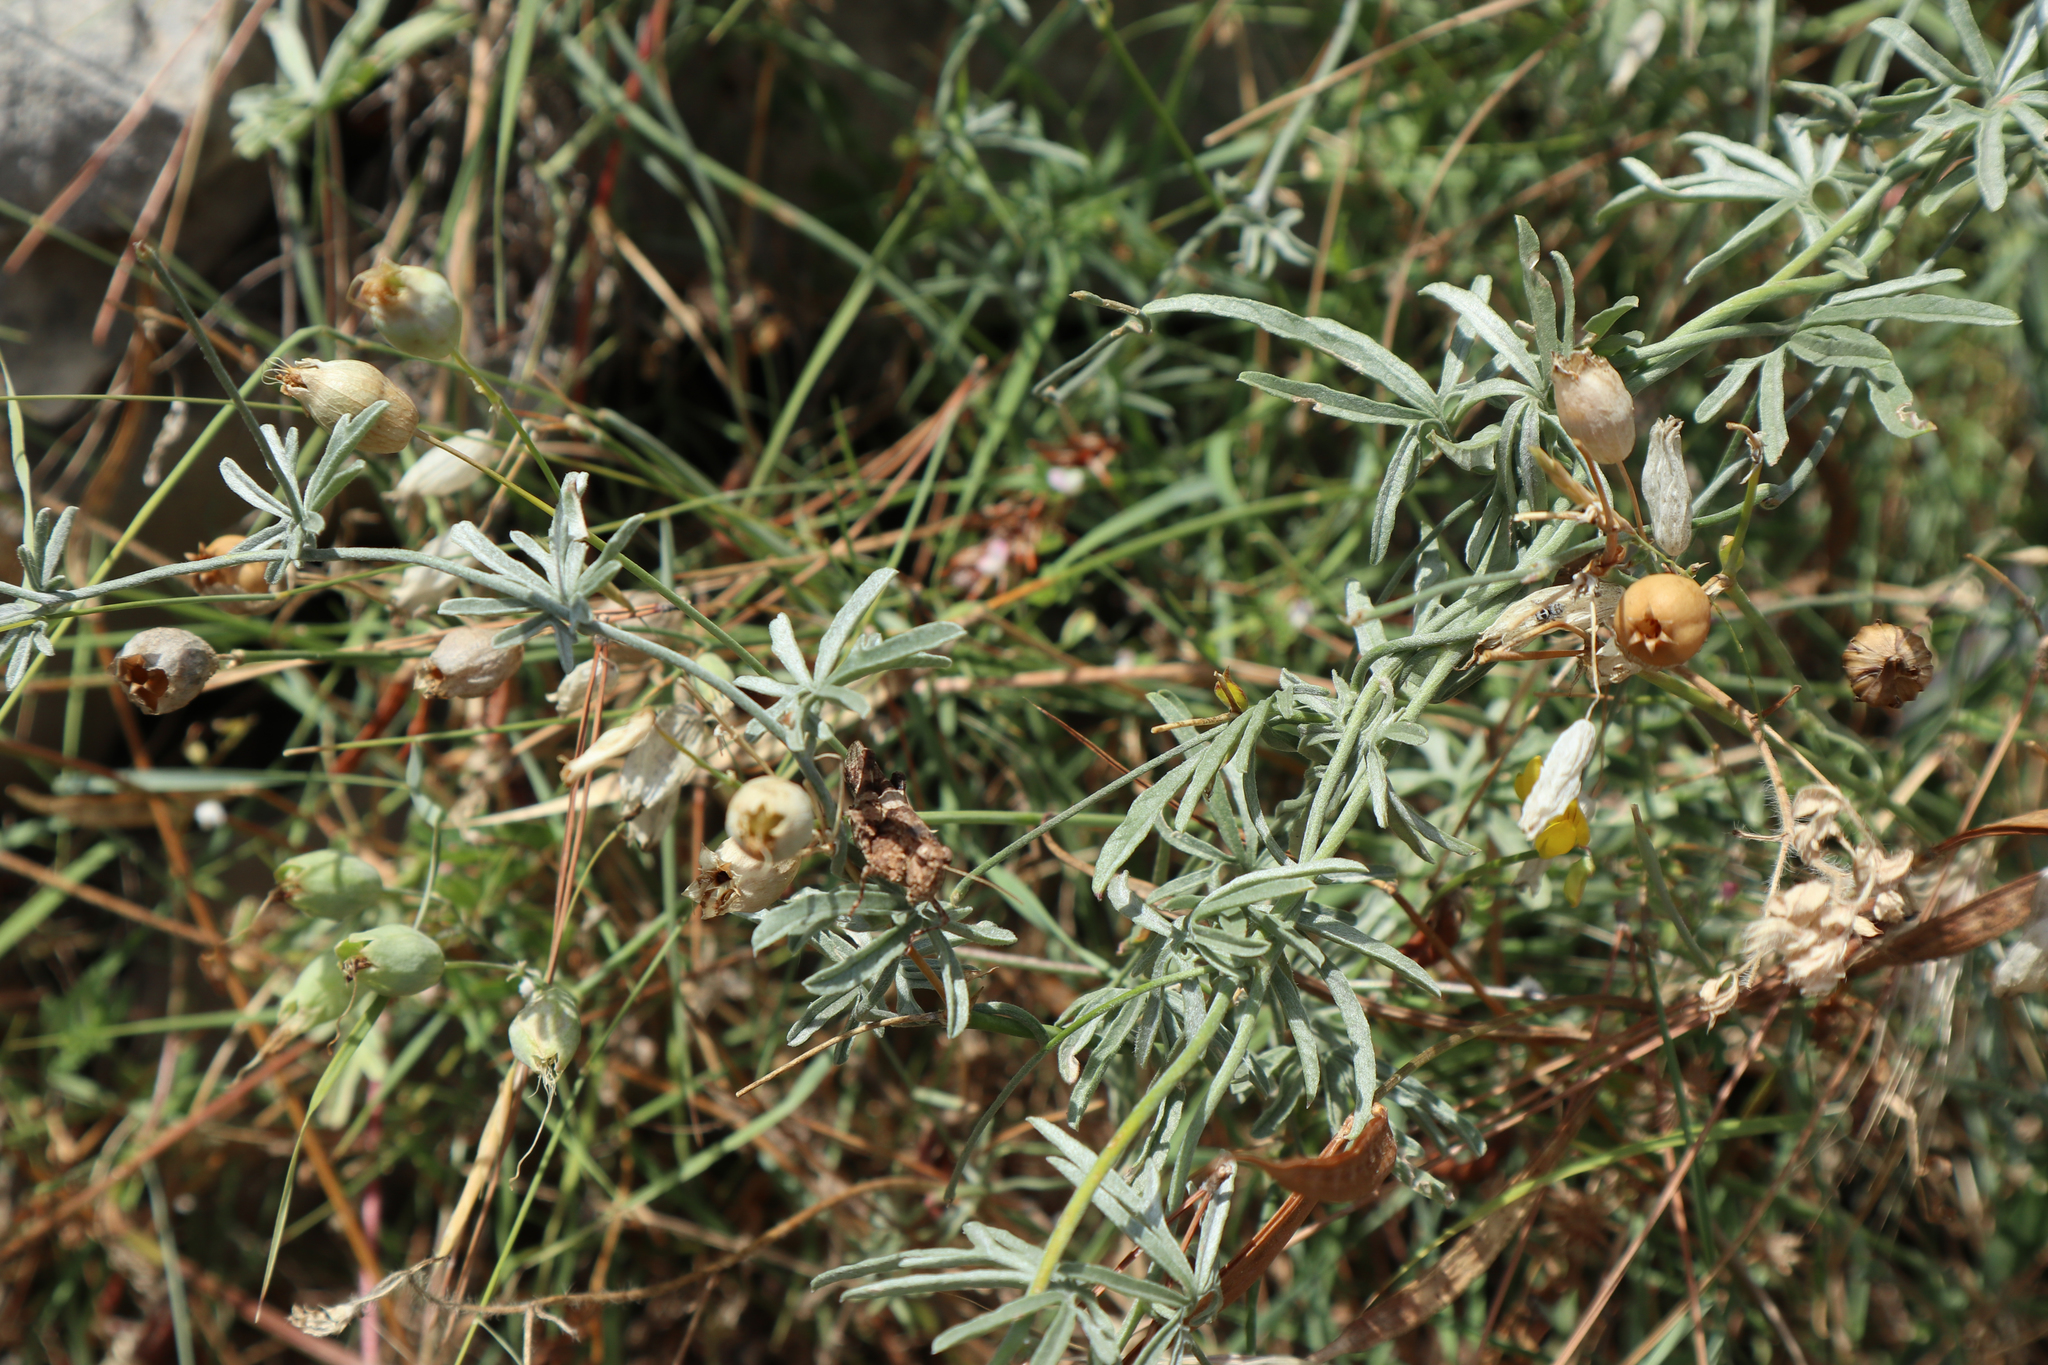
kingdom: Plantae
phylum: Tracheophyta
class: Magnoliopsida
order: Solanales
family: Convolvulaceae
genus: Convolvulus
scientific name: Convolvulus elegantissimus
